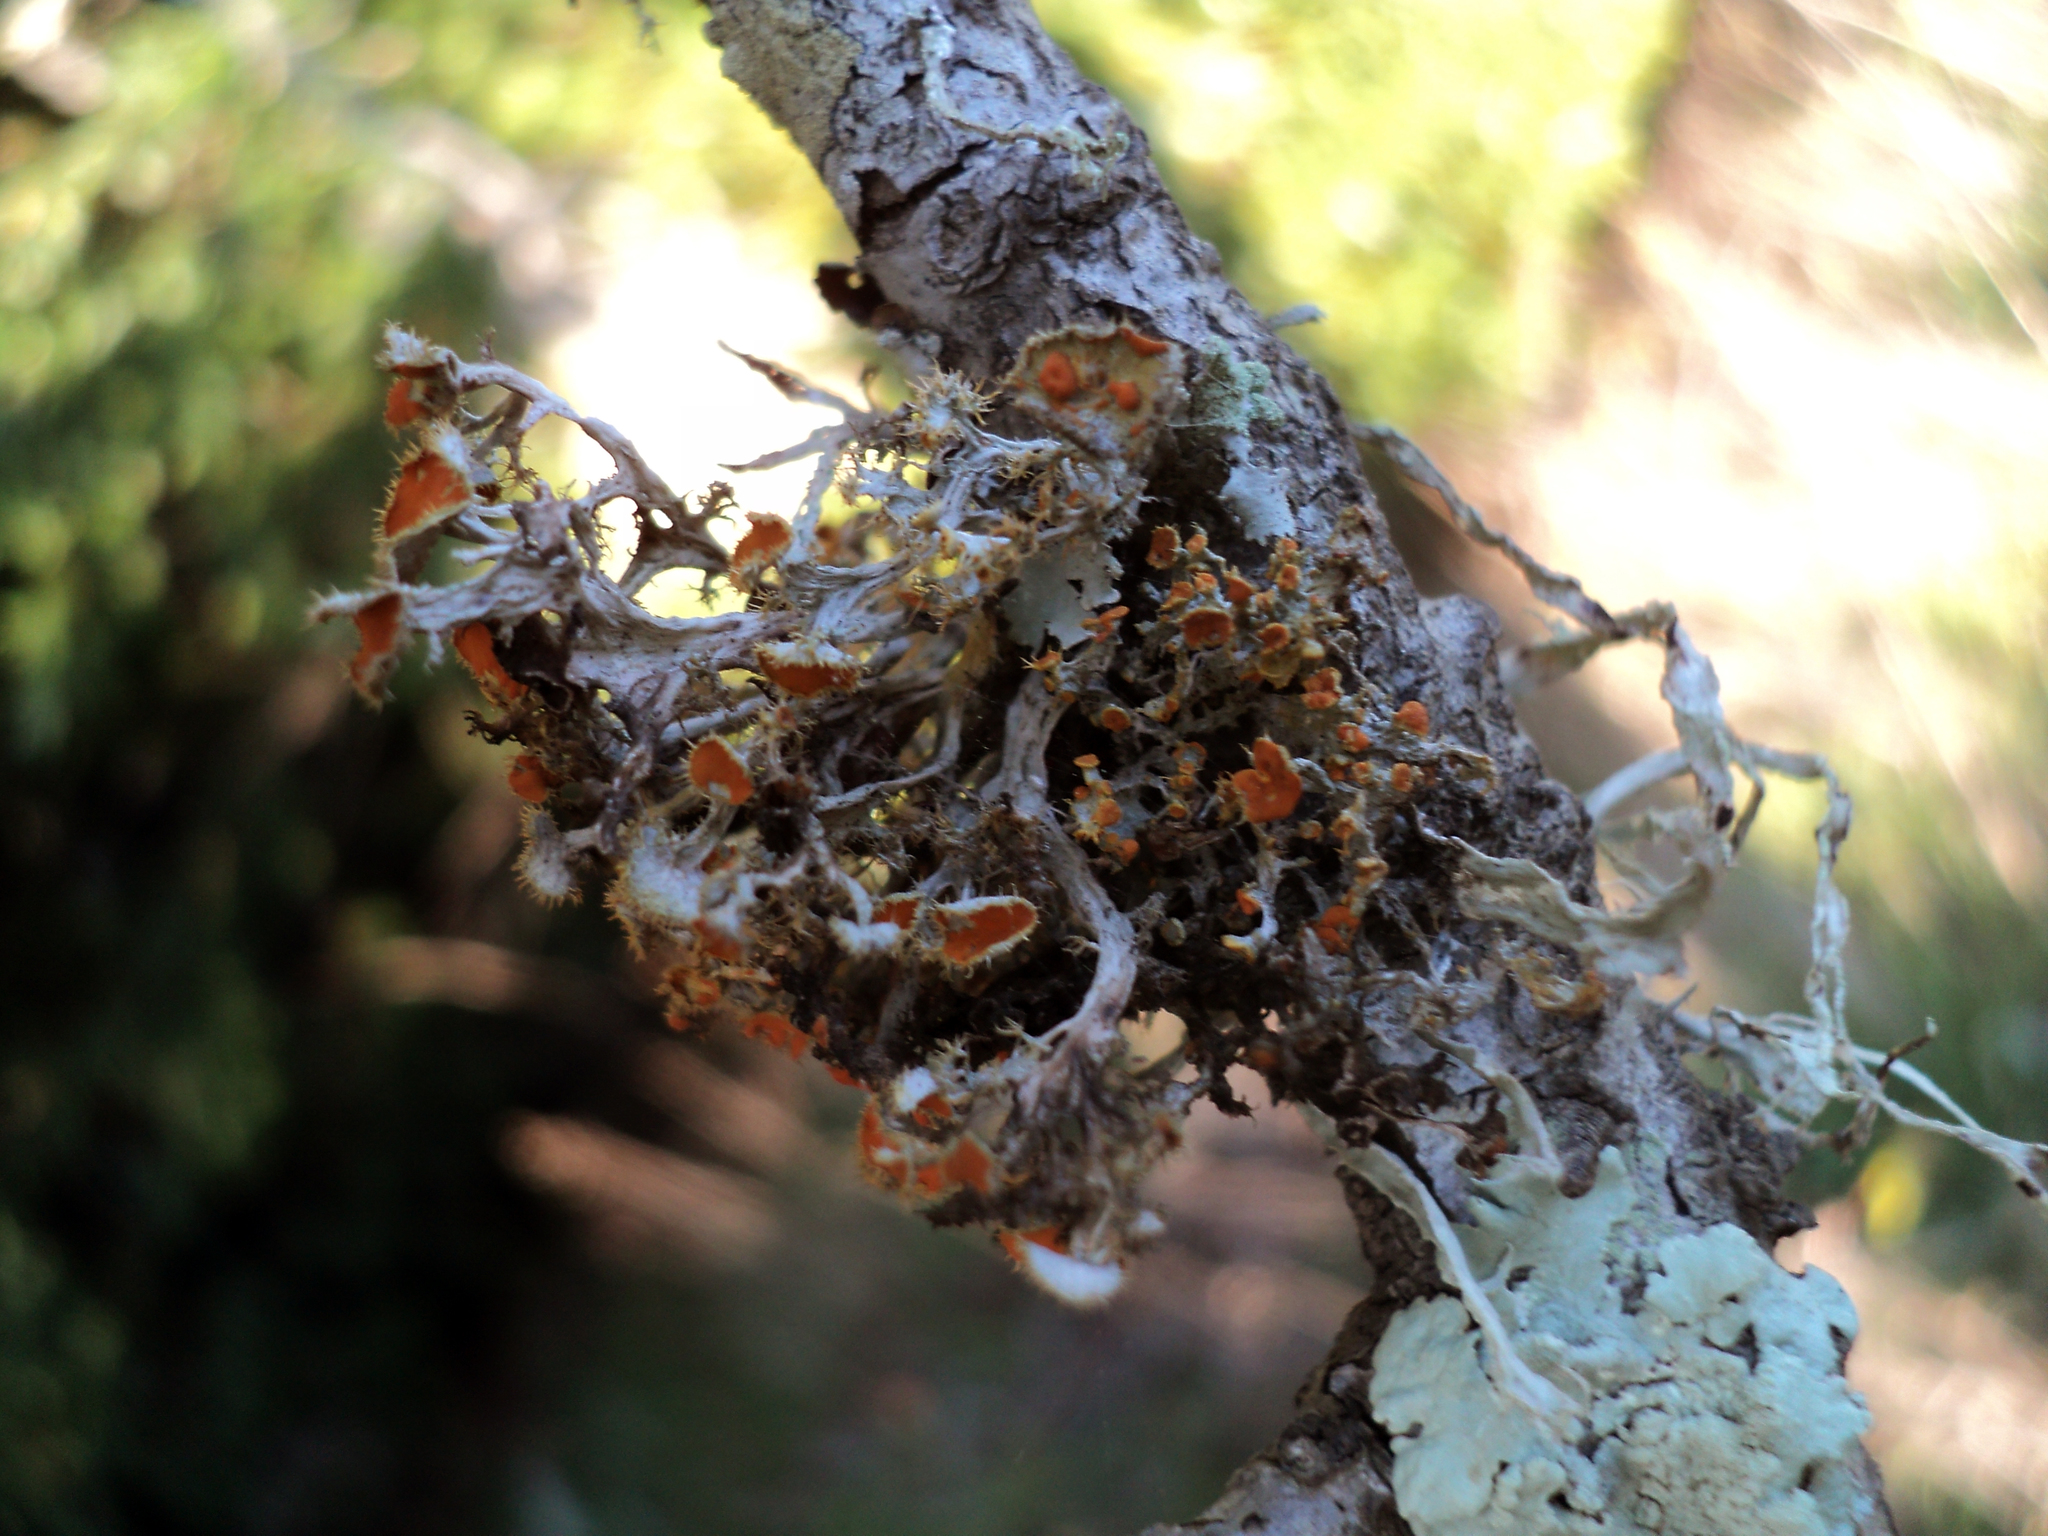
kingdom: Fungi
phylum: Ascomycota
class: Lecanoromycetes
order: Teloschistales
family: Teloschistaceae
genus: Niorma
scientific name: Niorma chrysophthalma
